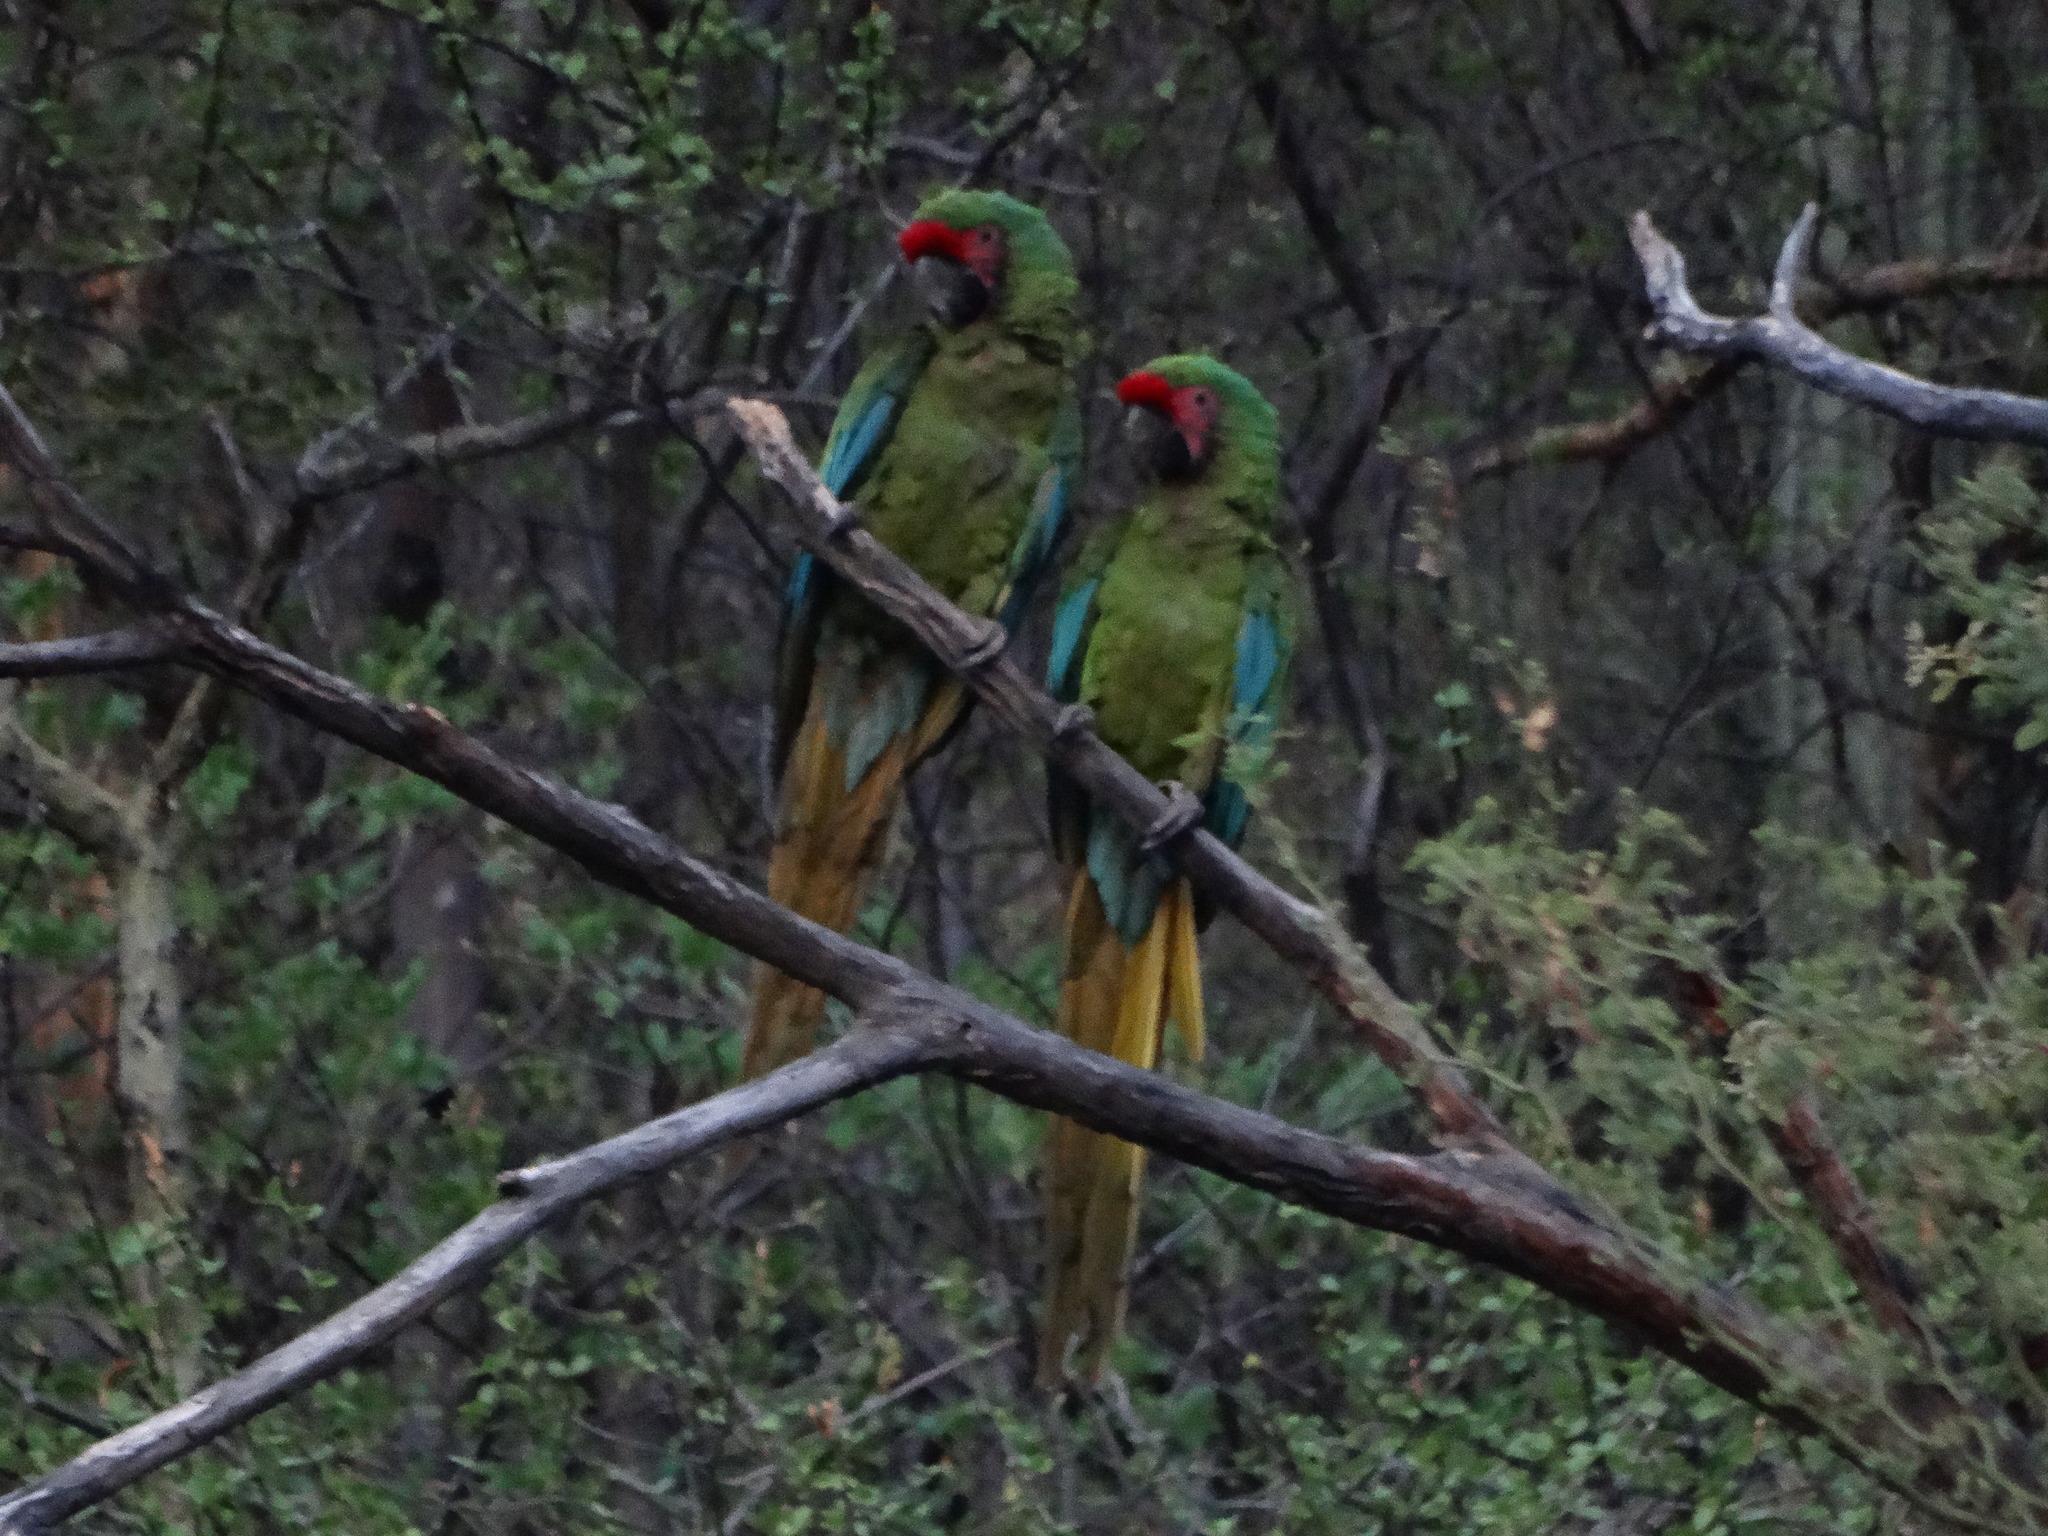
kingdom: Animalia
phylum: Chordata
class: Aves
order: Psittaciformes
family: Psittacidae
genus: Ara
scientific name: Ara militaris
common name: Military macaw
